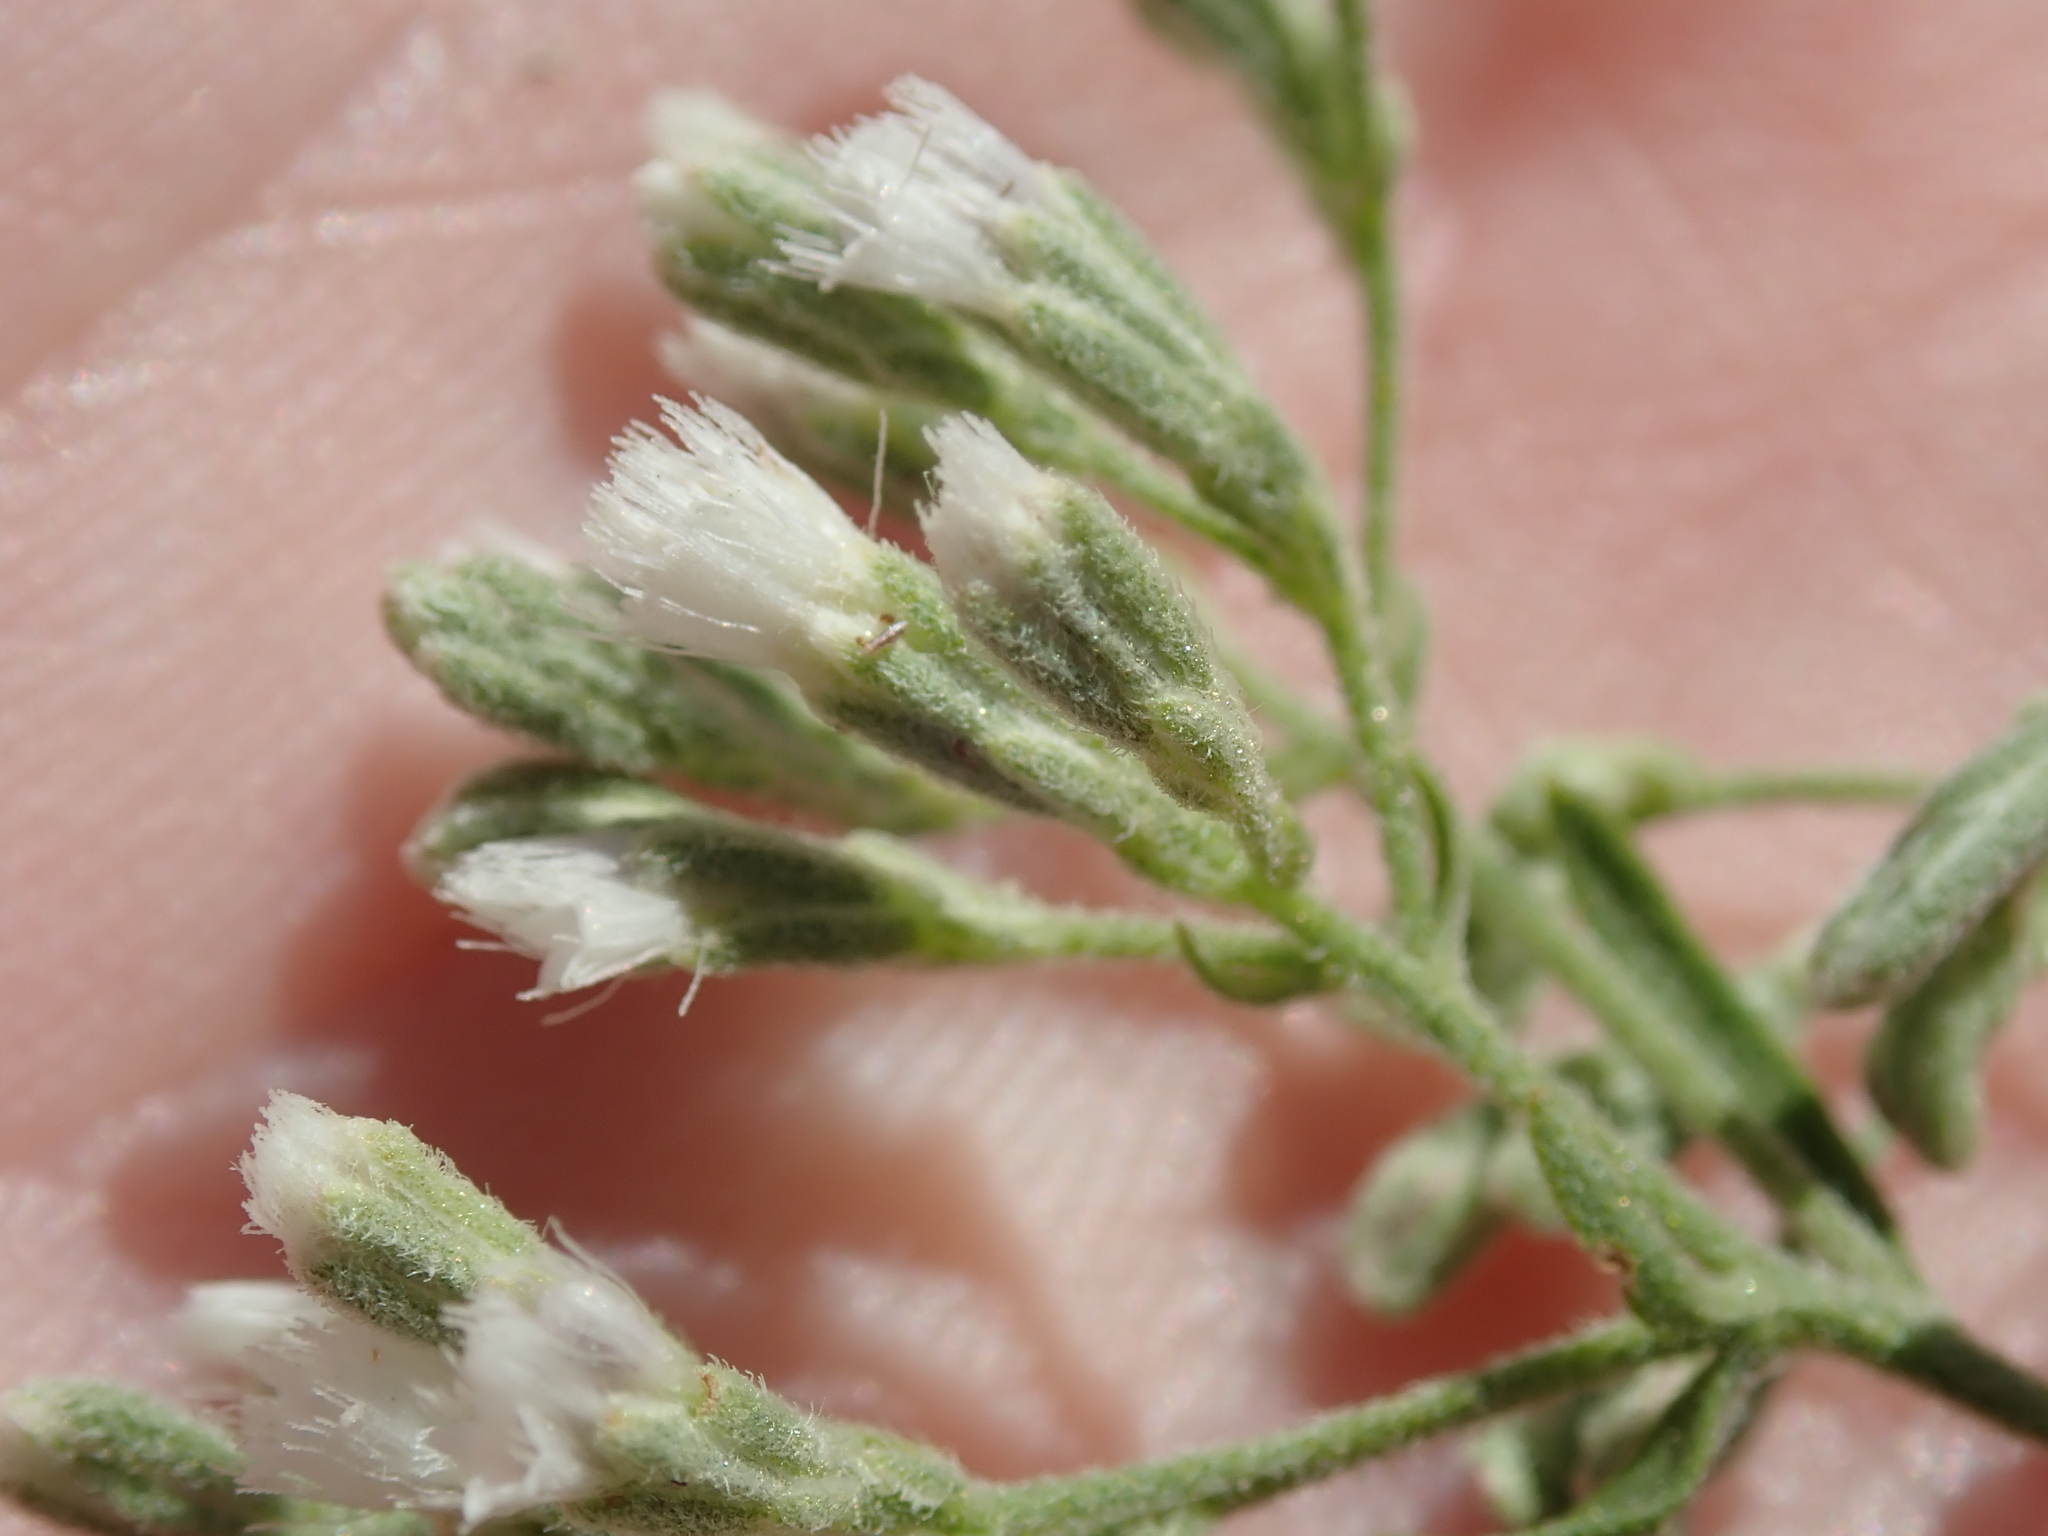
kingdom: Plantae
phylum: Tracheophyta
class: Magnoliopsida
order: Asterales
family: Asteraceae
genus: Eupatorium
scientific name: Eupatorium torreyanum
